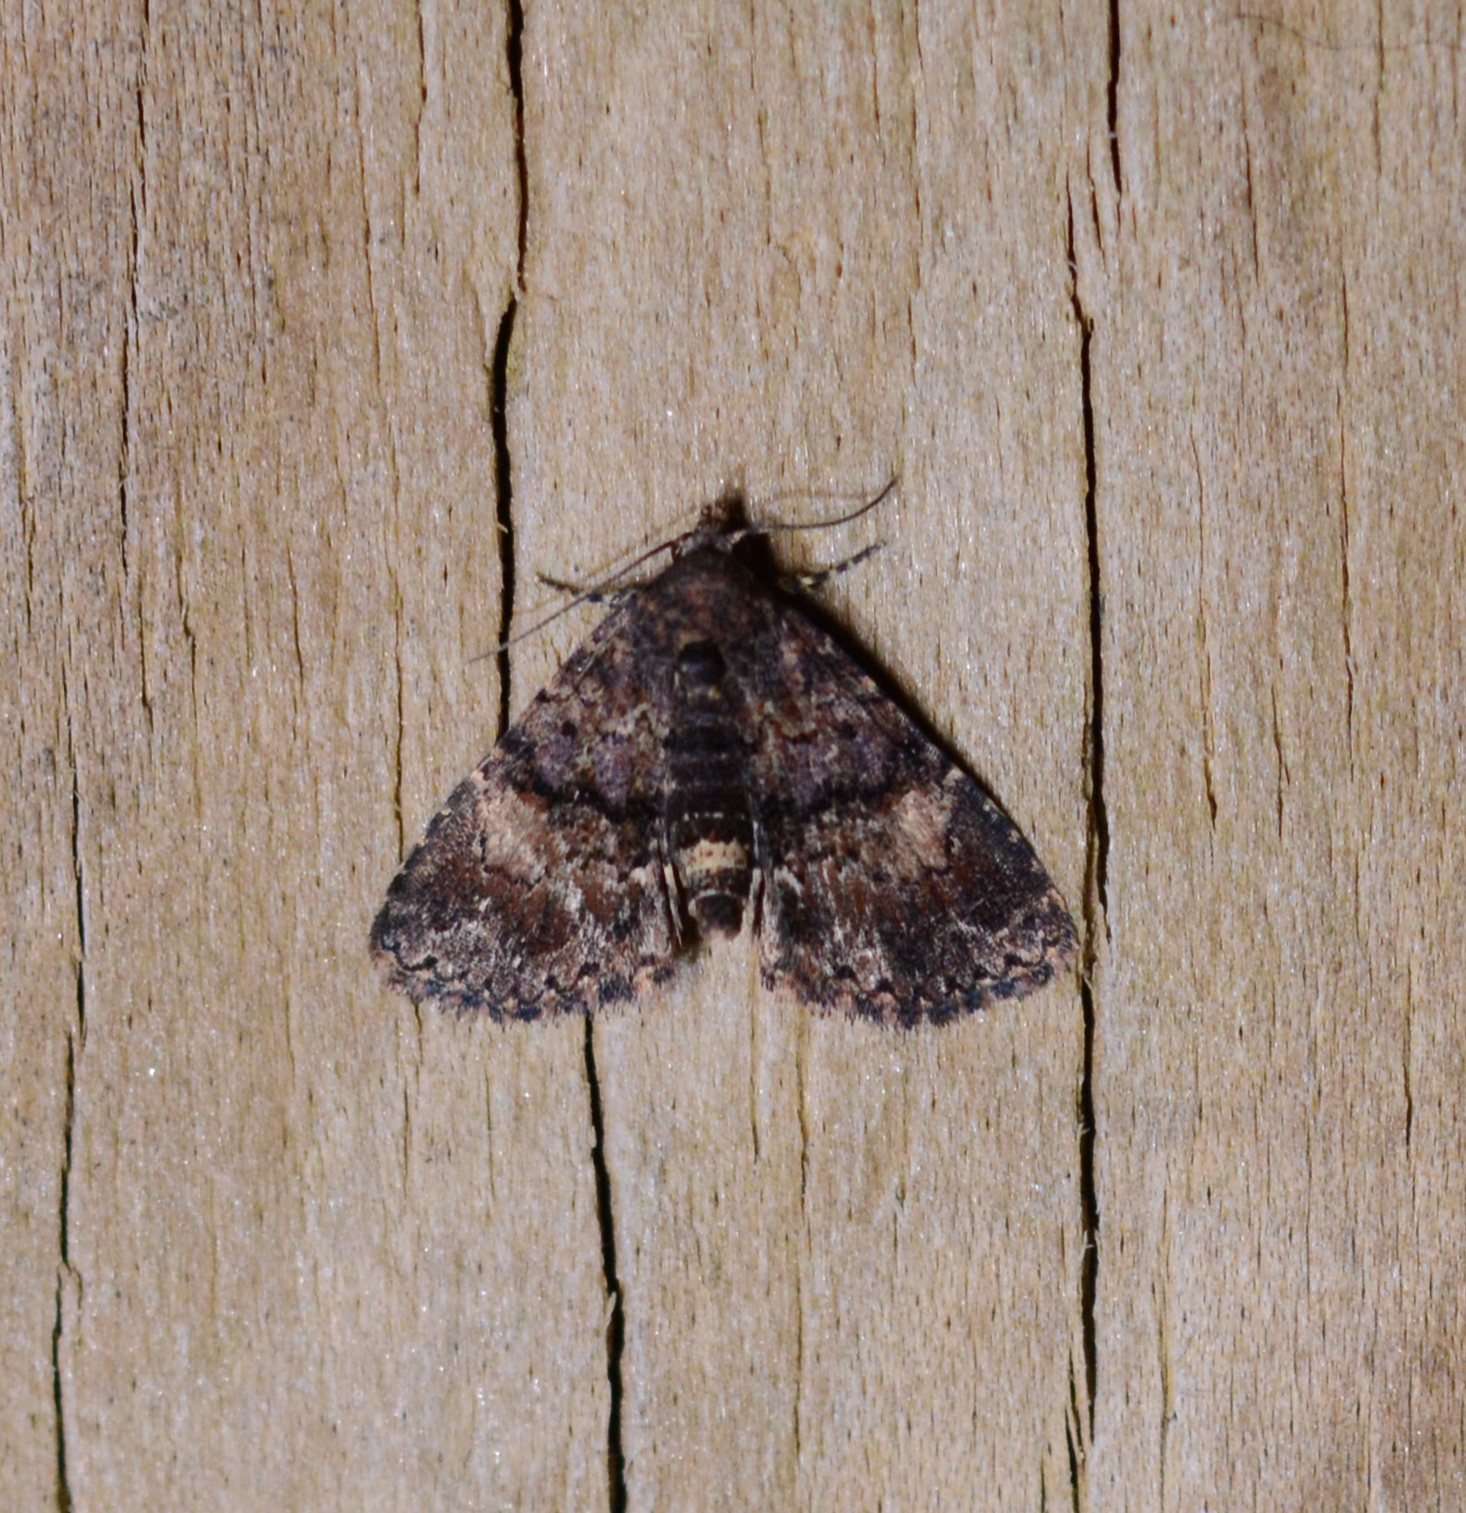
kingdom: Animalia
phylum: Arthropoda
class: Insecta
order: Lepidoptera
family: Erebidae
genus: Metalectra
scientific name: Metalectra richardsi
